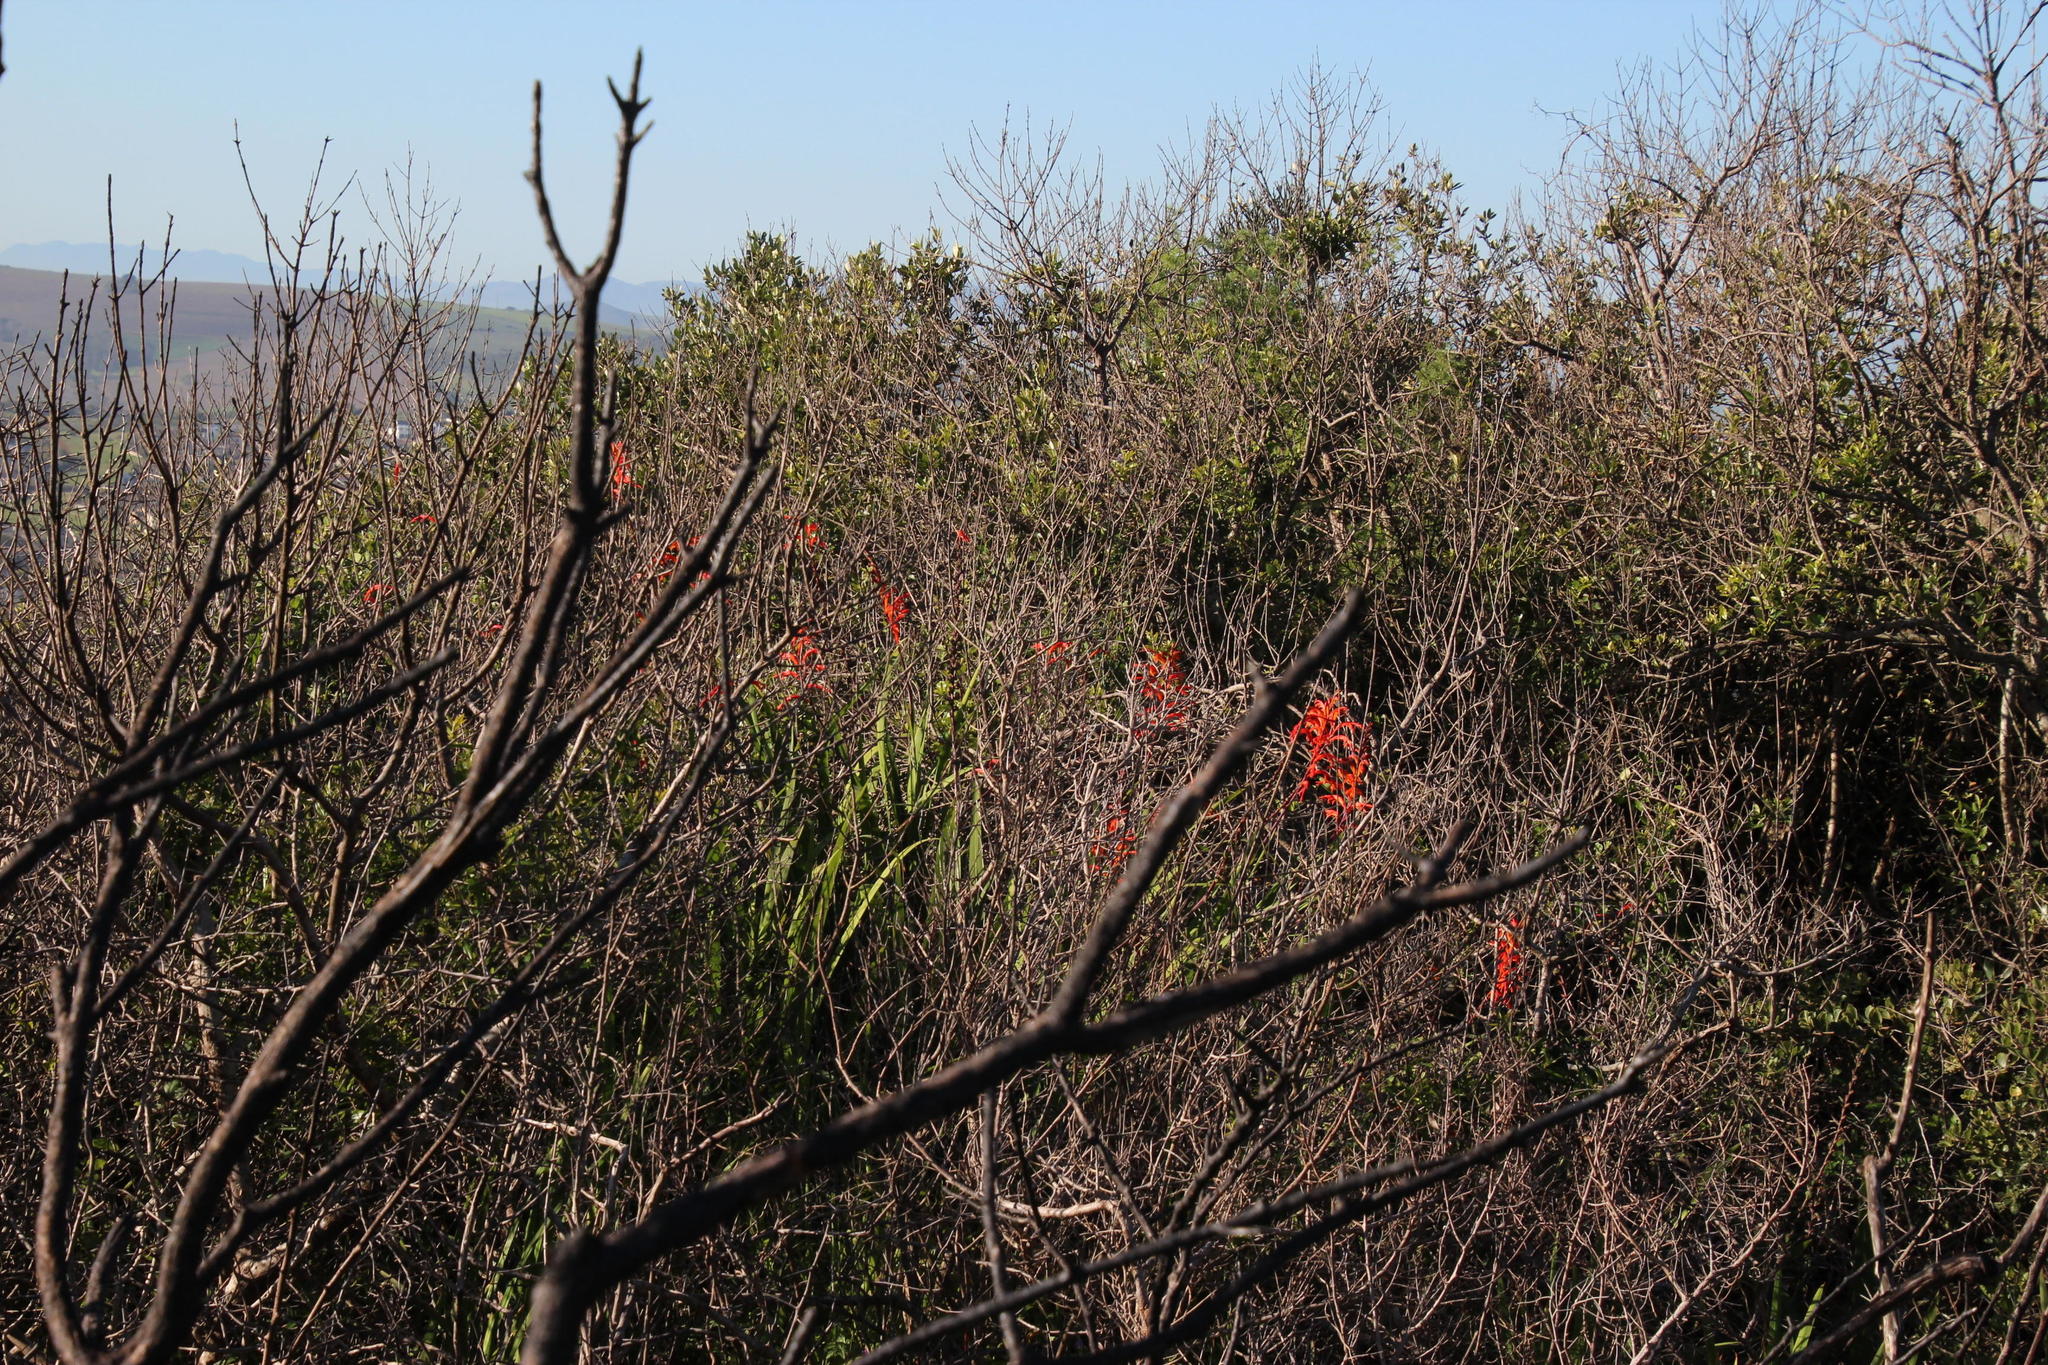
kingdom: Plantae
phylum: Tracheophyta
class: Liliopsida
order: Asparagales
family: Iridaceae
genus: Chasmanthe
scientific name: Chasmanthe aethiopica
